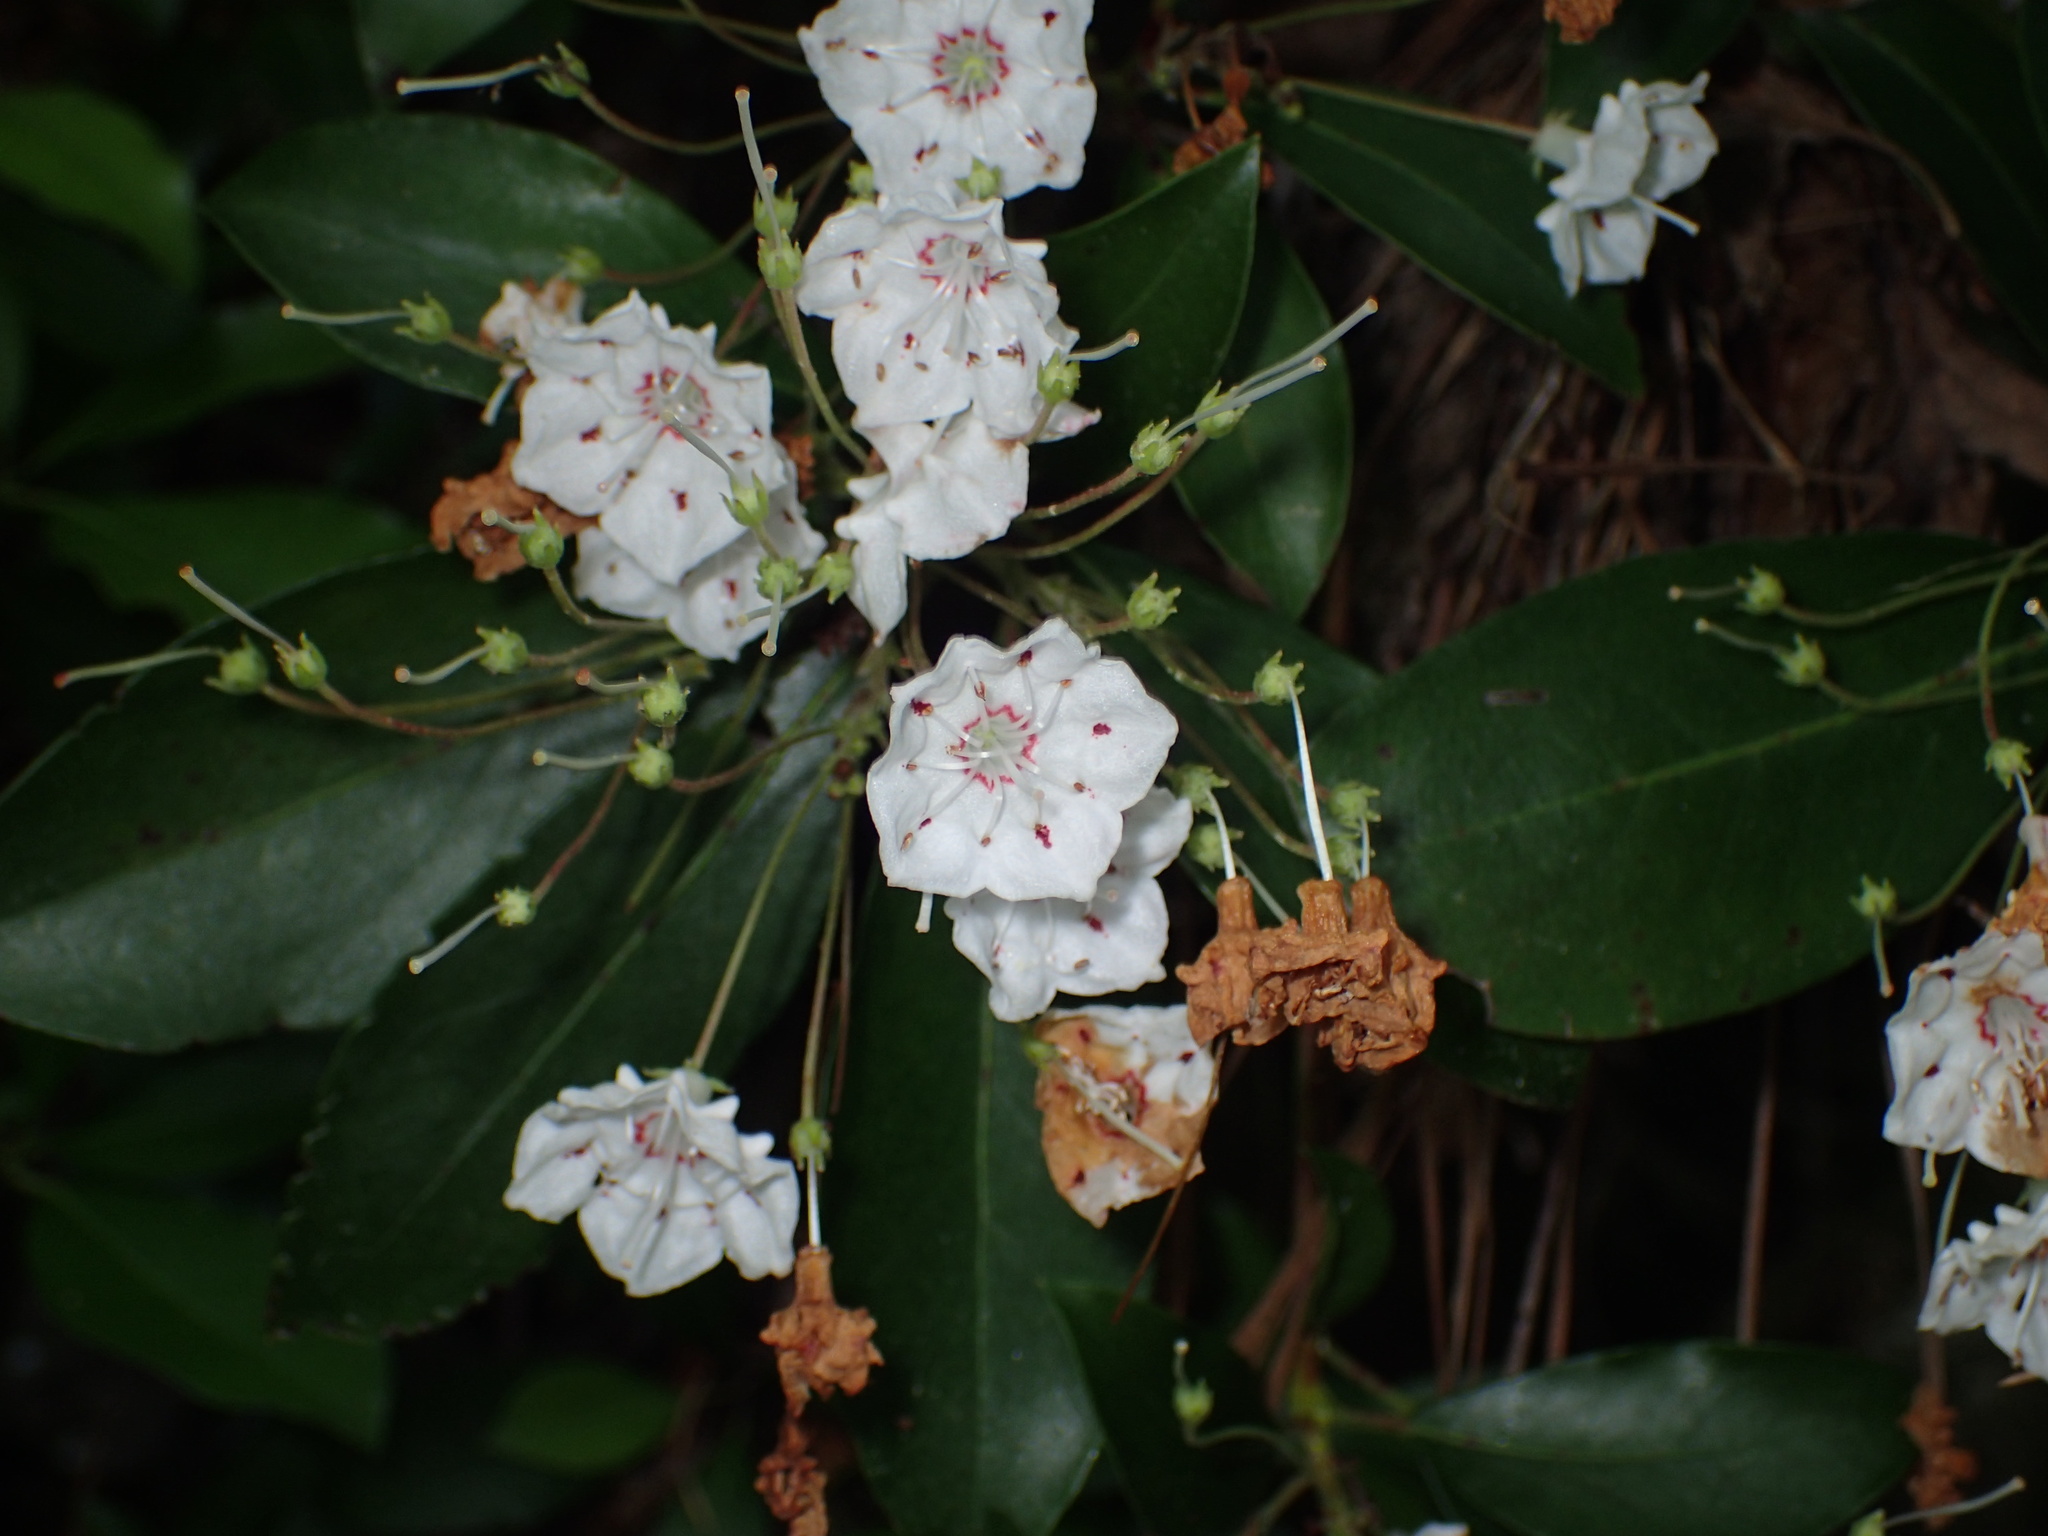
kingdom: Plantae
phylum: Tracheophyta
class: Magnoliopsida
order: Ericales
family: Ericaceae
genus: Kalmia
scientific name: Kalmia latifolia
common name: Mountain-laurel
